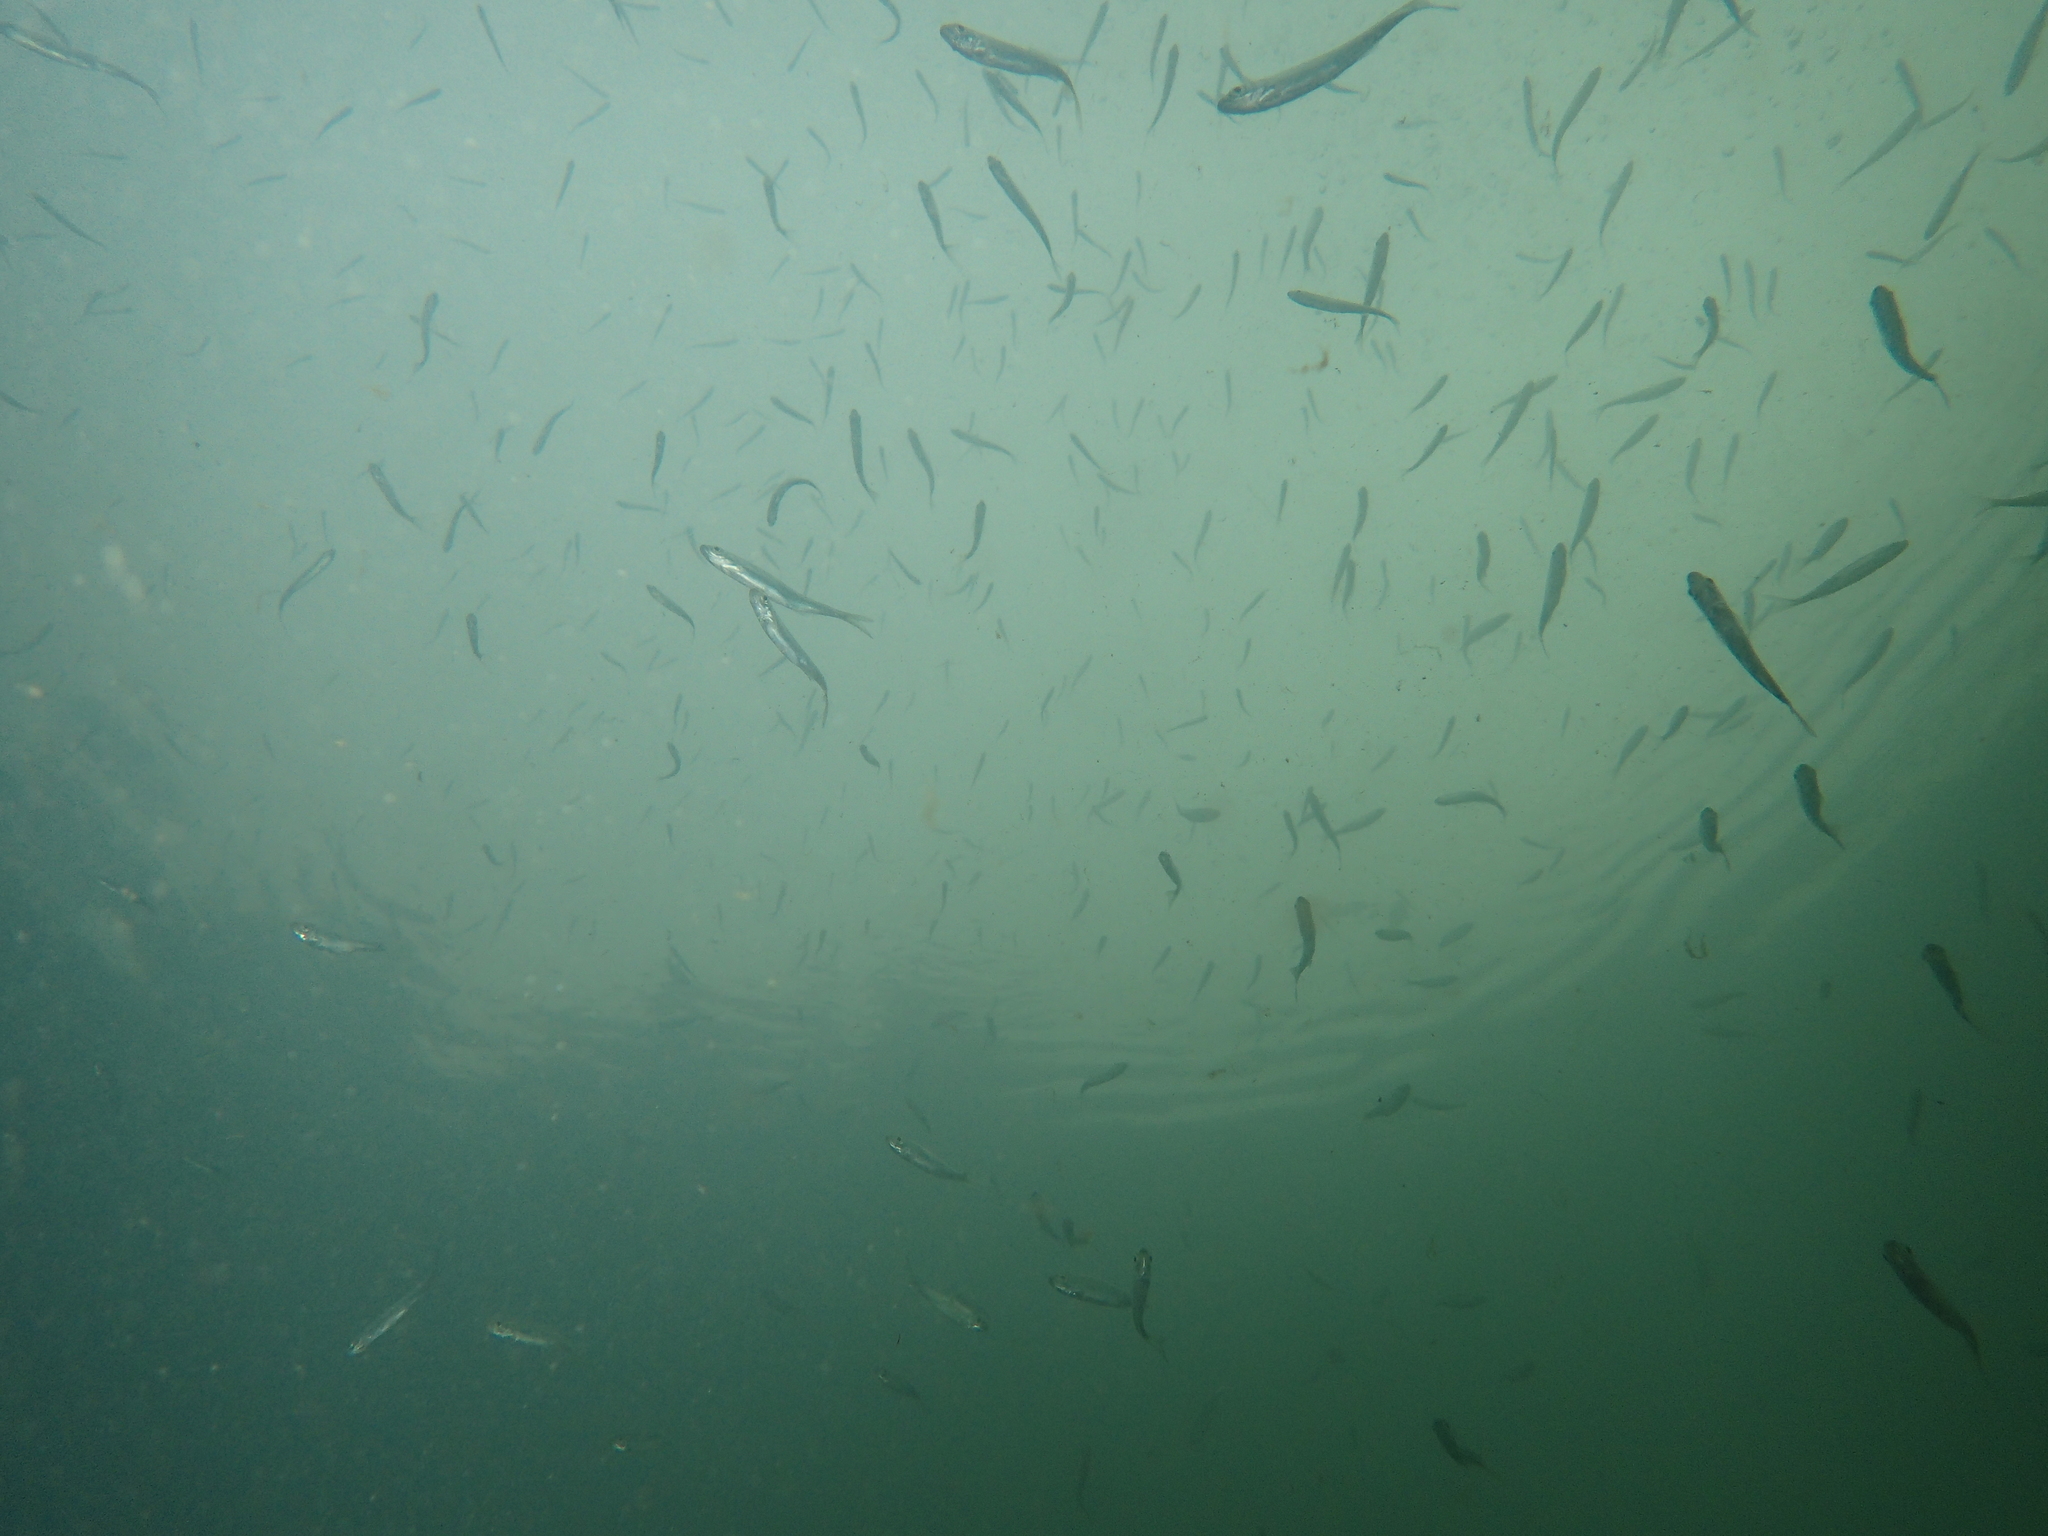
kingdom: Animalia
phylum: Chordata
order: Cypriniformes
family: Cyprinidae
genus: Alburnus
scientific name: Alburnus alburnus
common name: Bleak
